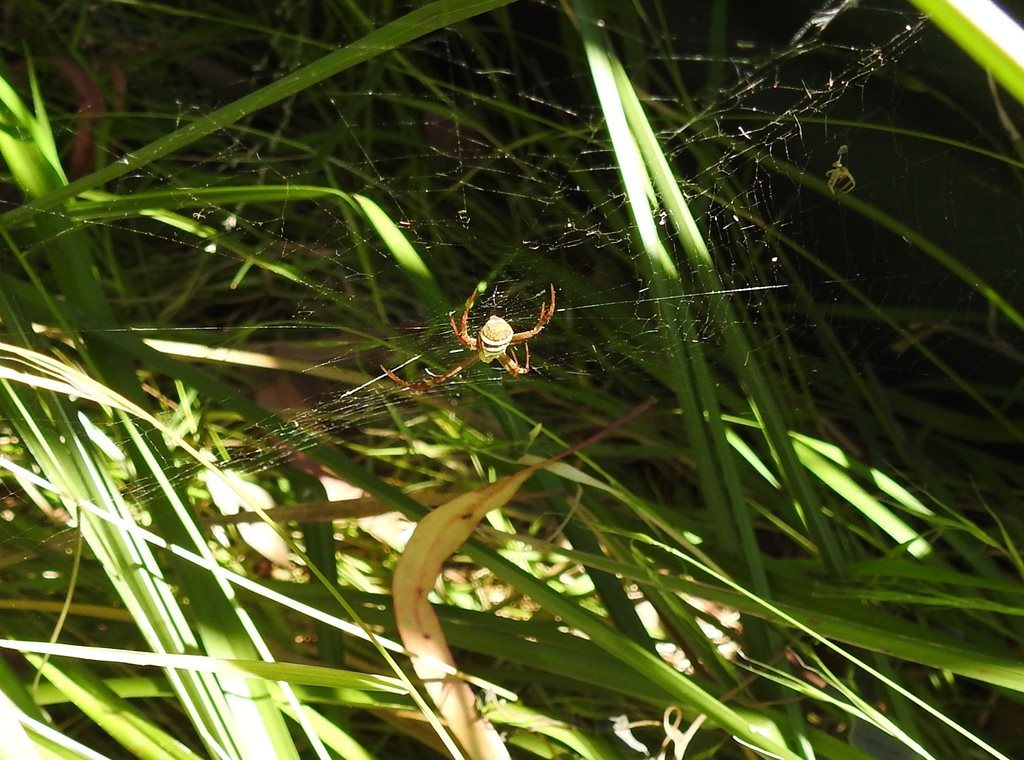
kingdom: Animalia
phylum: Arthropoda
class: Arachnida
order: Araneae
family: Araneidae
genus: Argiope
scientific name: Argiope keyserlingi
